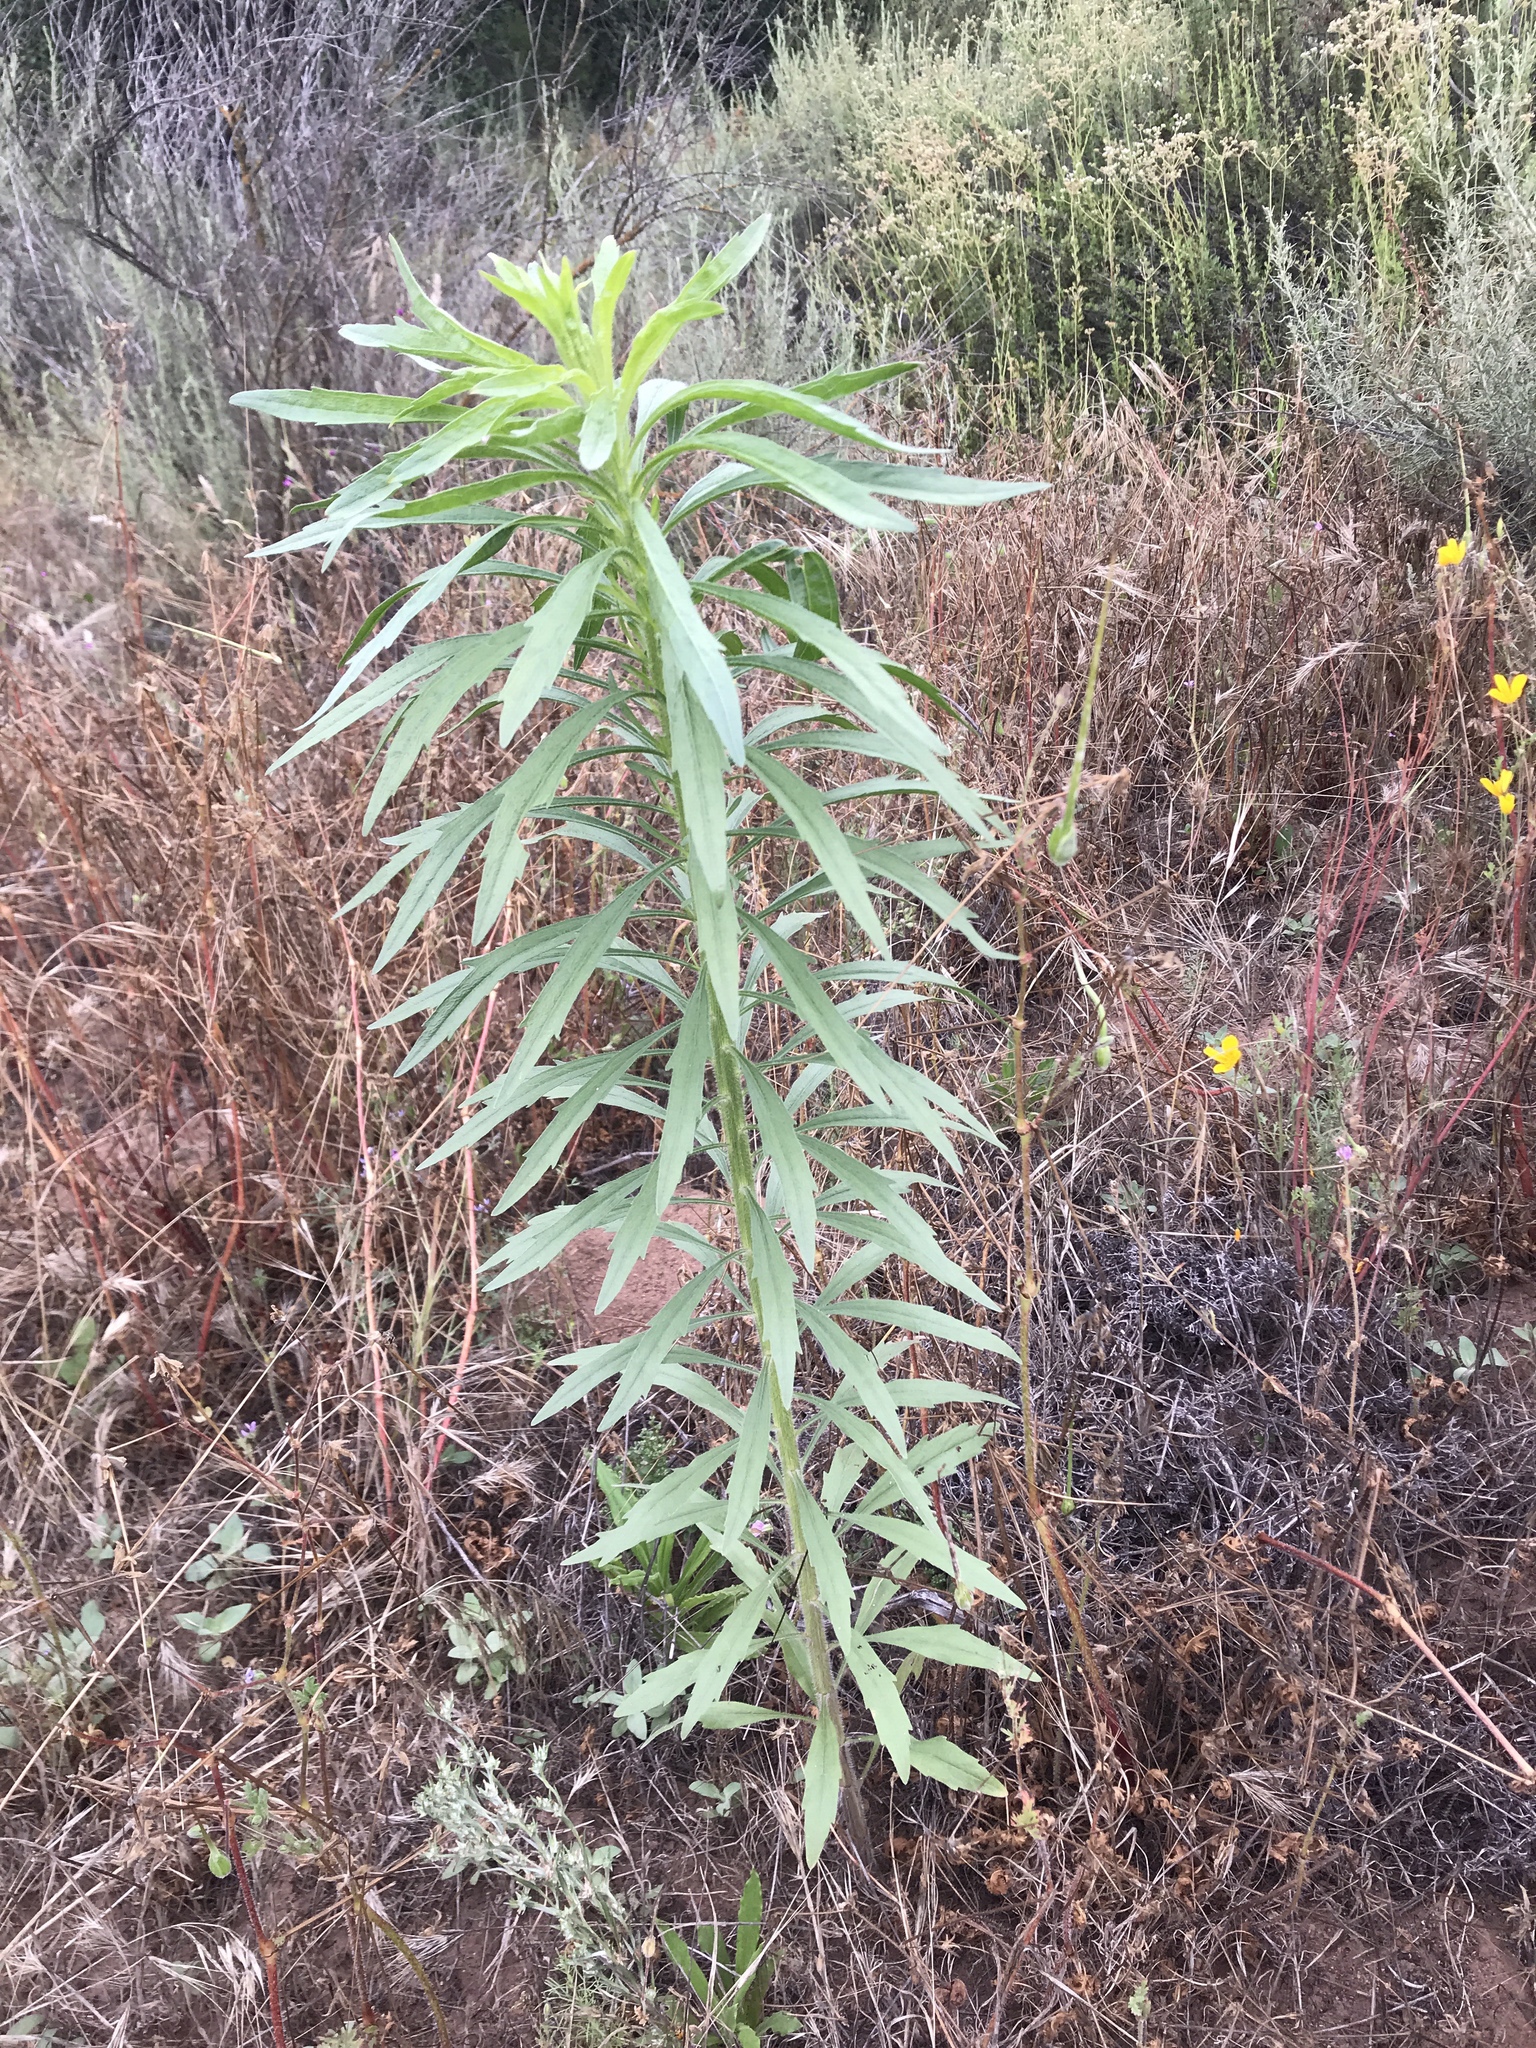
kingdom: Plantae
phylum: Tracheophyta
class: Magnoliopsida
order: Asterales
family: Asteraceae
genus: Erigeron
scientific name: Erigeron canadensis
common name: Canadian fleabane
